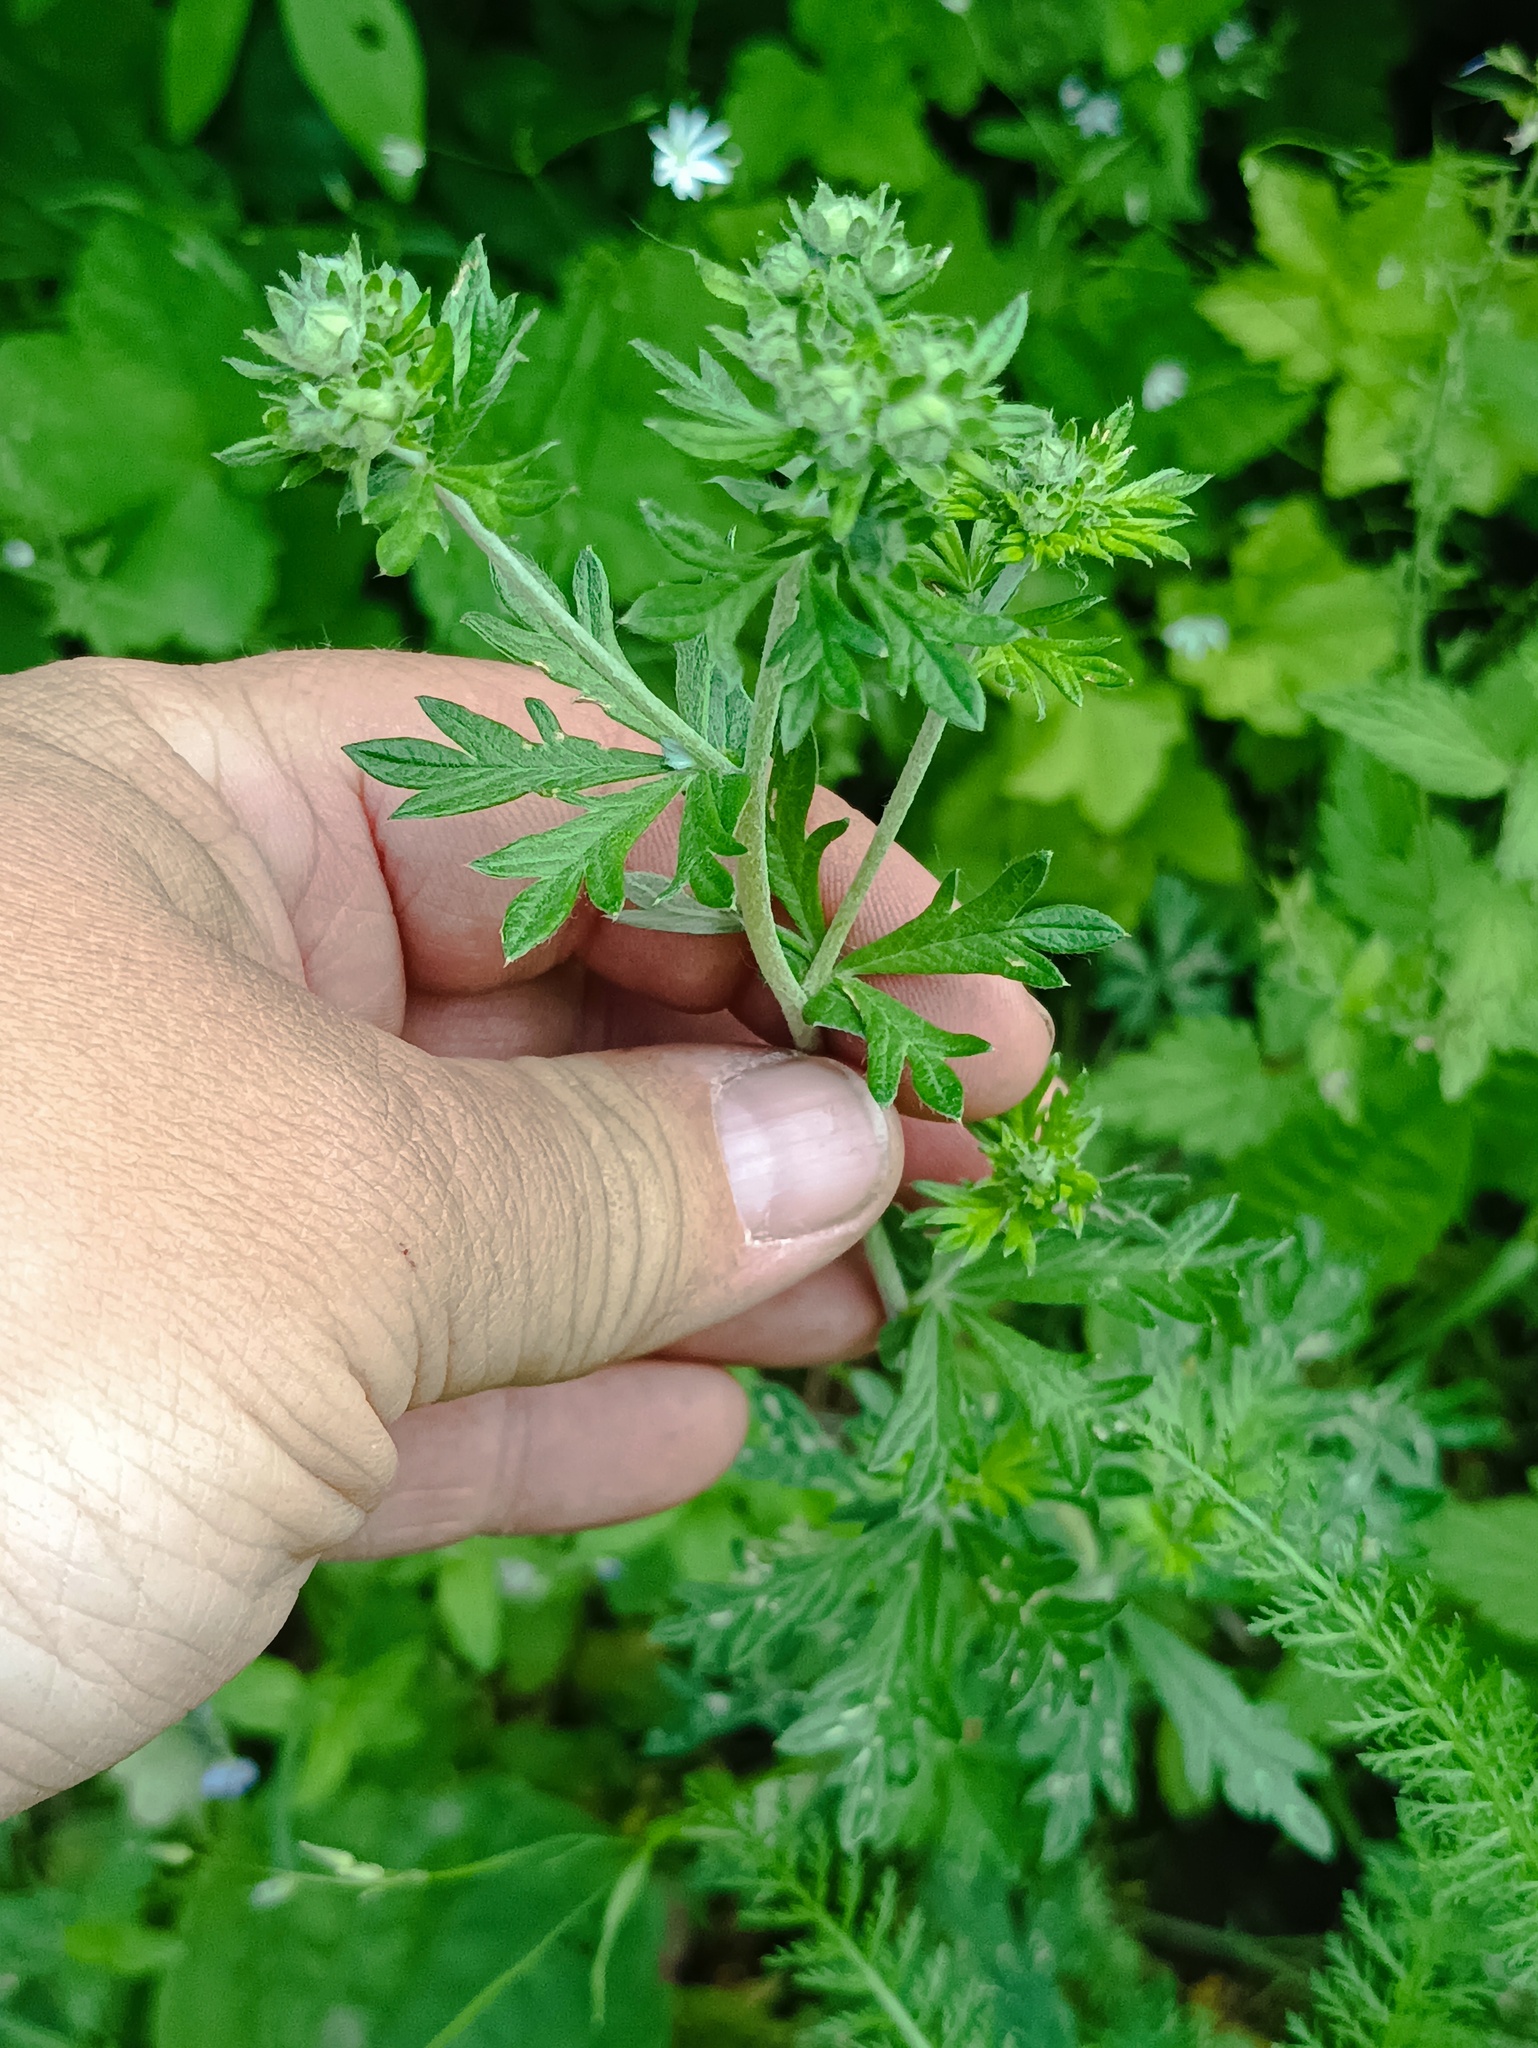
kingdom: Plantae
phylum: Tracheophyta
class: Magnoliopsida
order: Rosales
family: Rosaceae
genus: Potentilla
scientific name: Potentilla argentea
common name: Hoary cinquefoil
